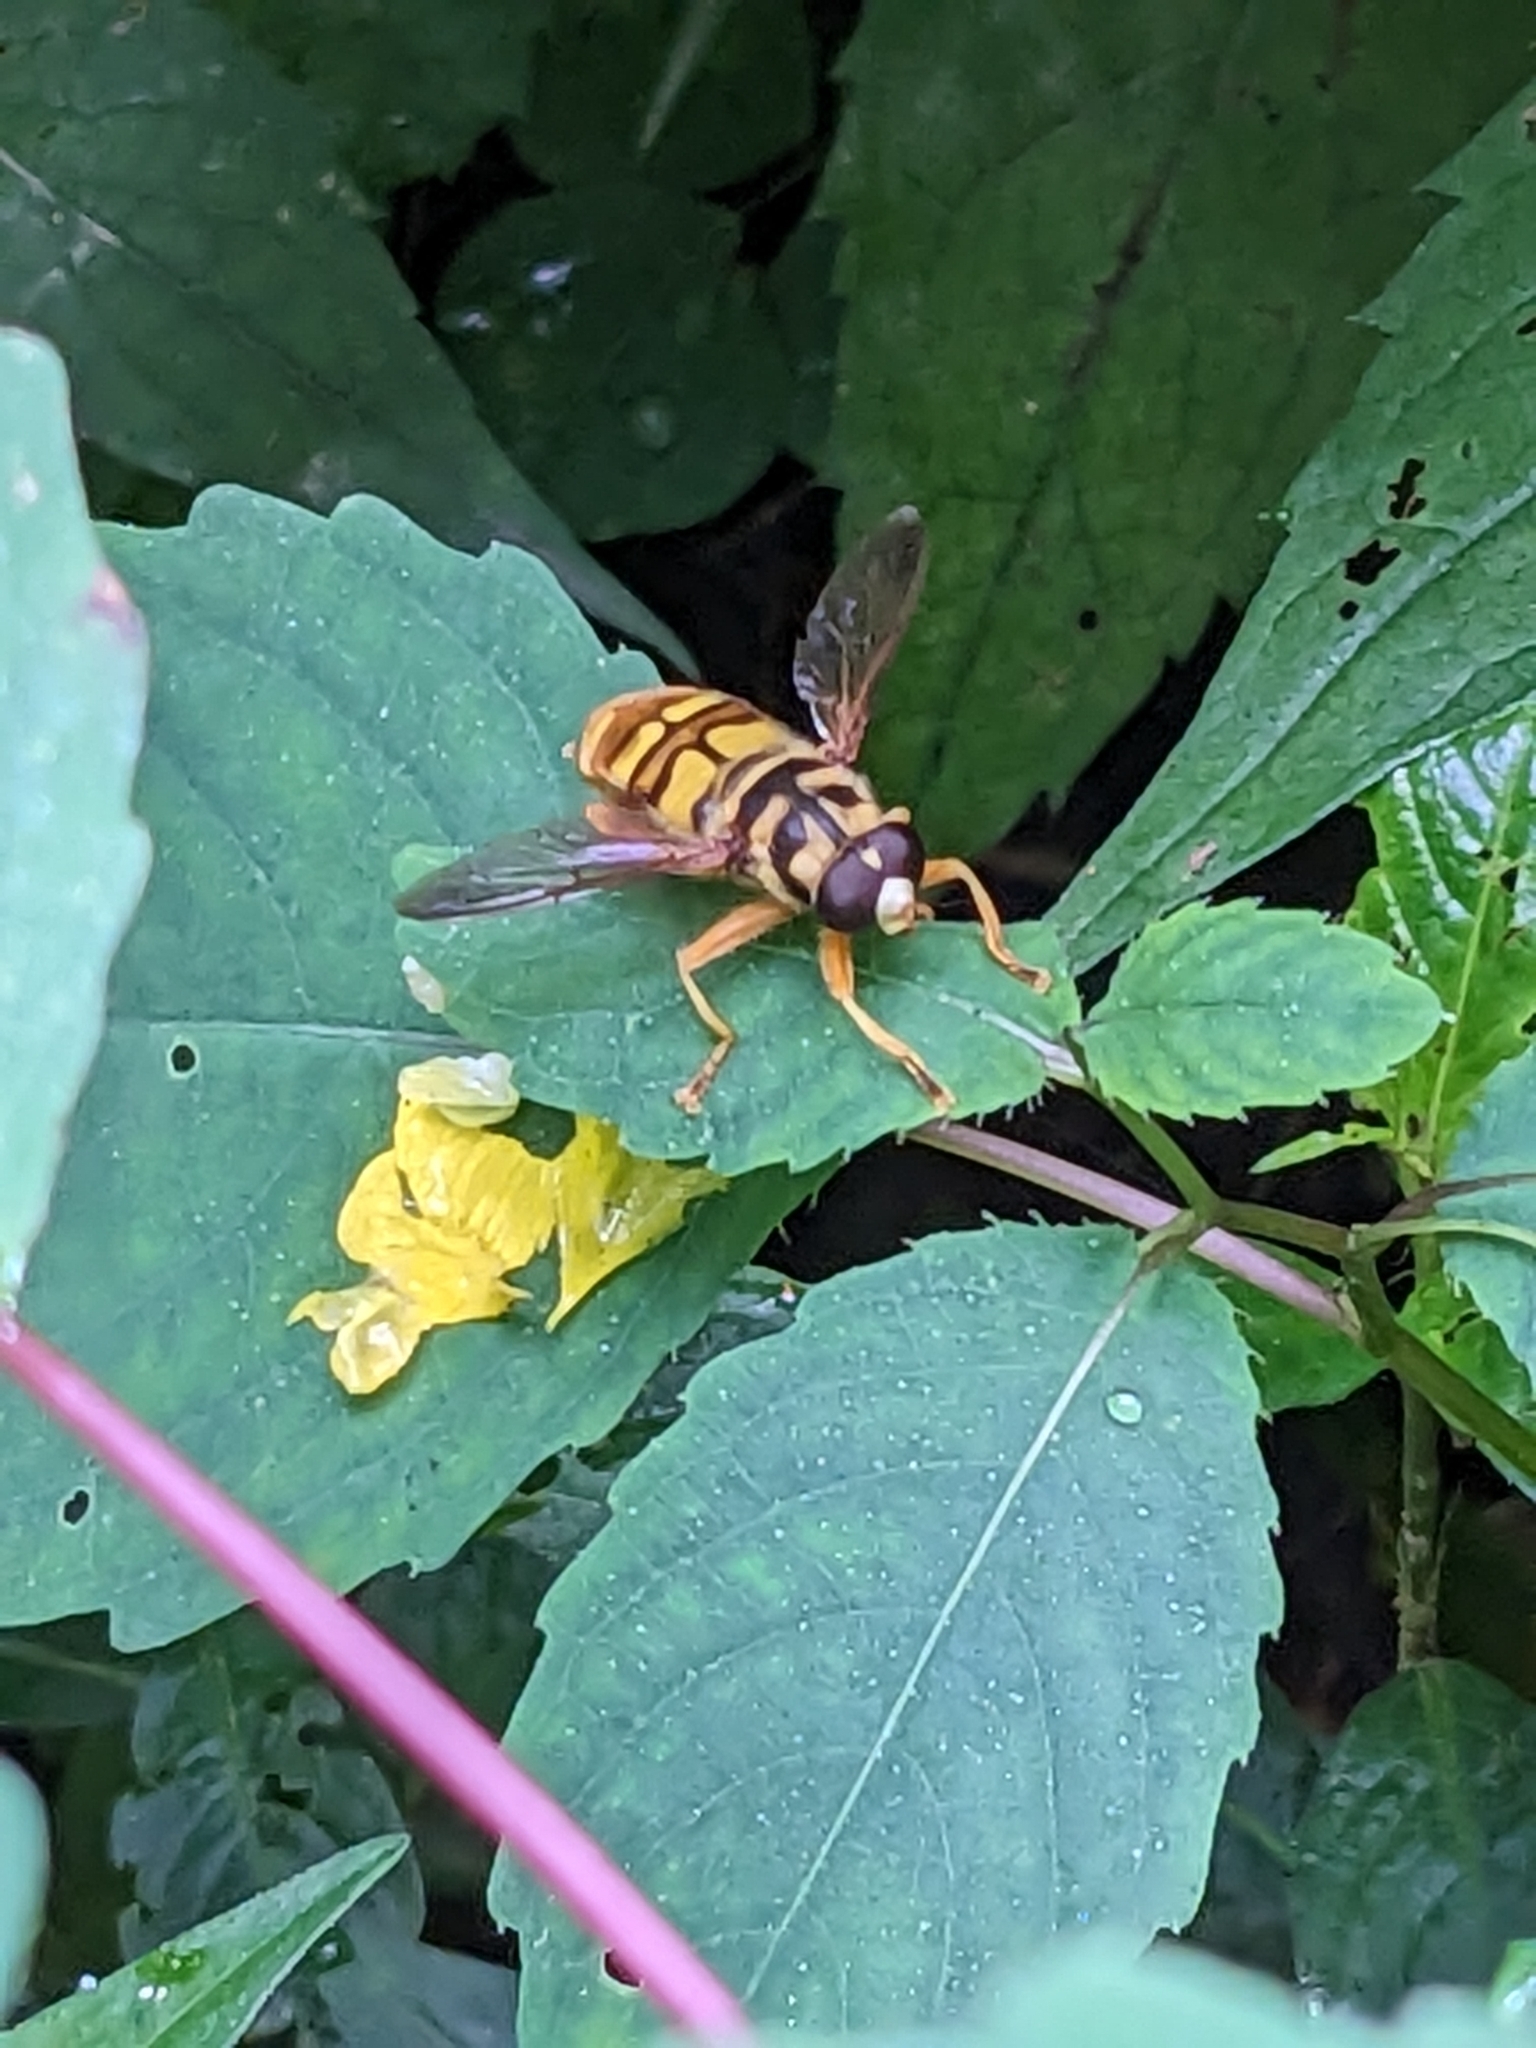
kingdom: Animalia
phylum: Arthropoda
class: Insecta
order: Diptera
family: Syrphidae
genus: Milesia
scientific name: Milesia virginiensis
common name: Virginia giant
